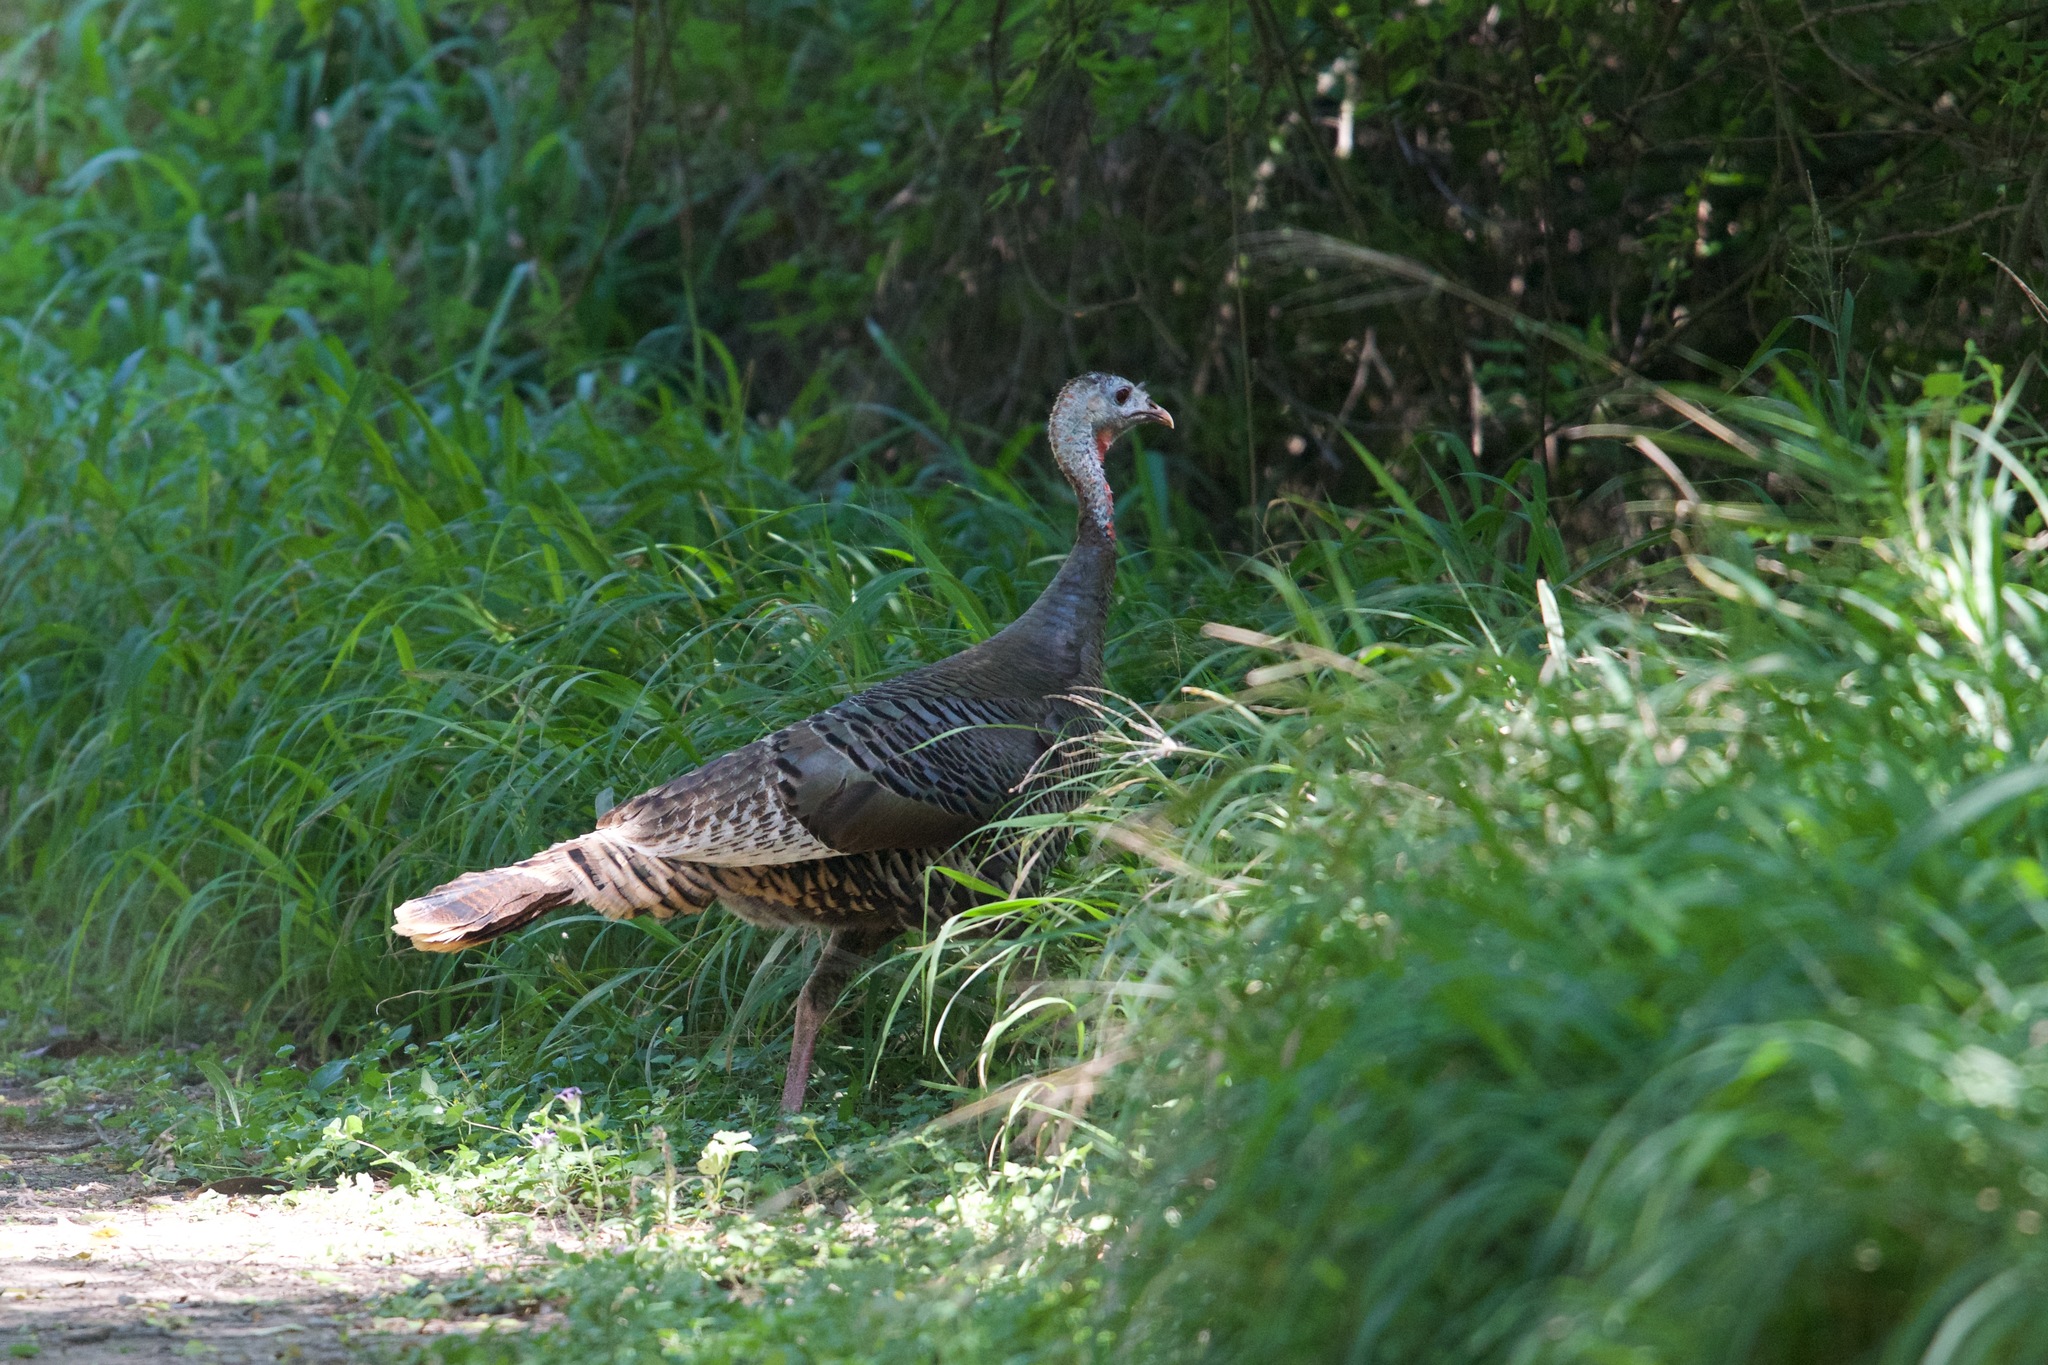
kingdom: Animalia
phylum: Chordata
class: Aves
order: Galliformes
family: Phasianidae
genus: Meleagris
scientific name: Meleagris gallopavo
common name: Wild turkey
